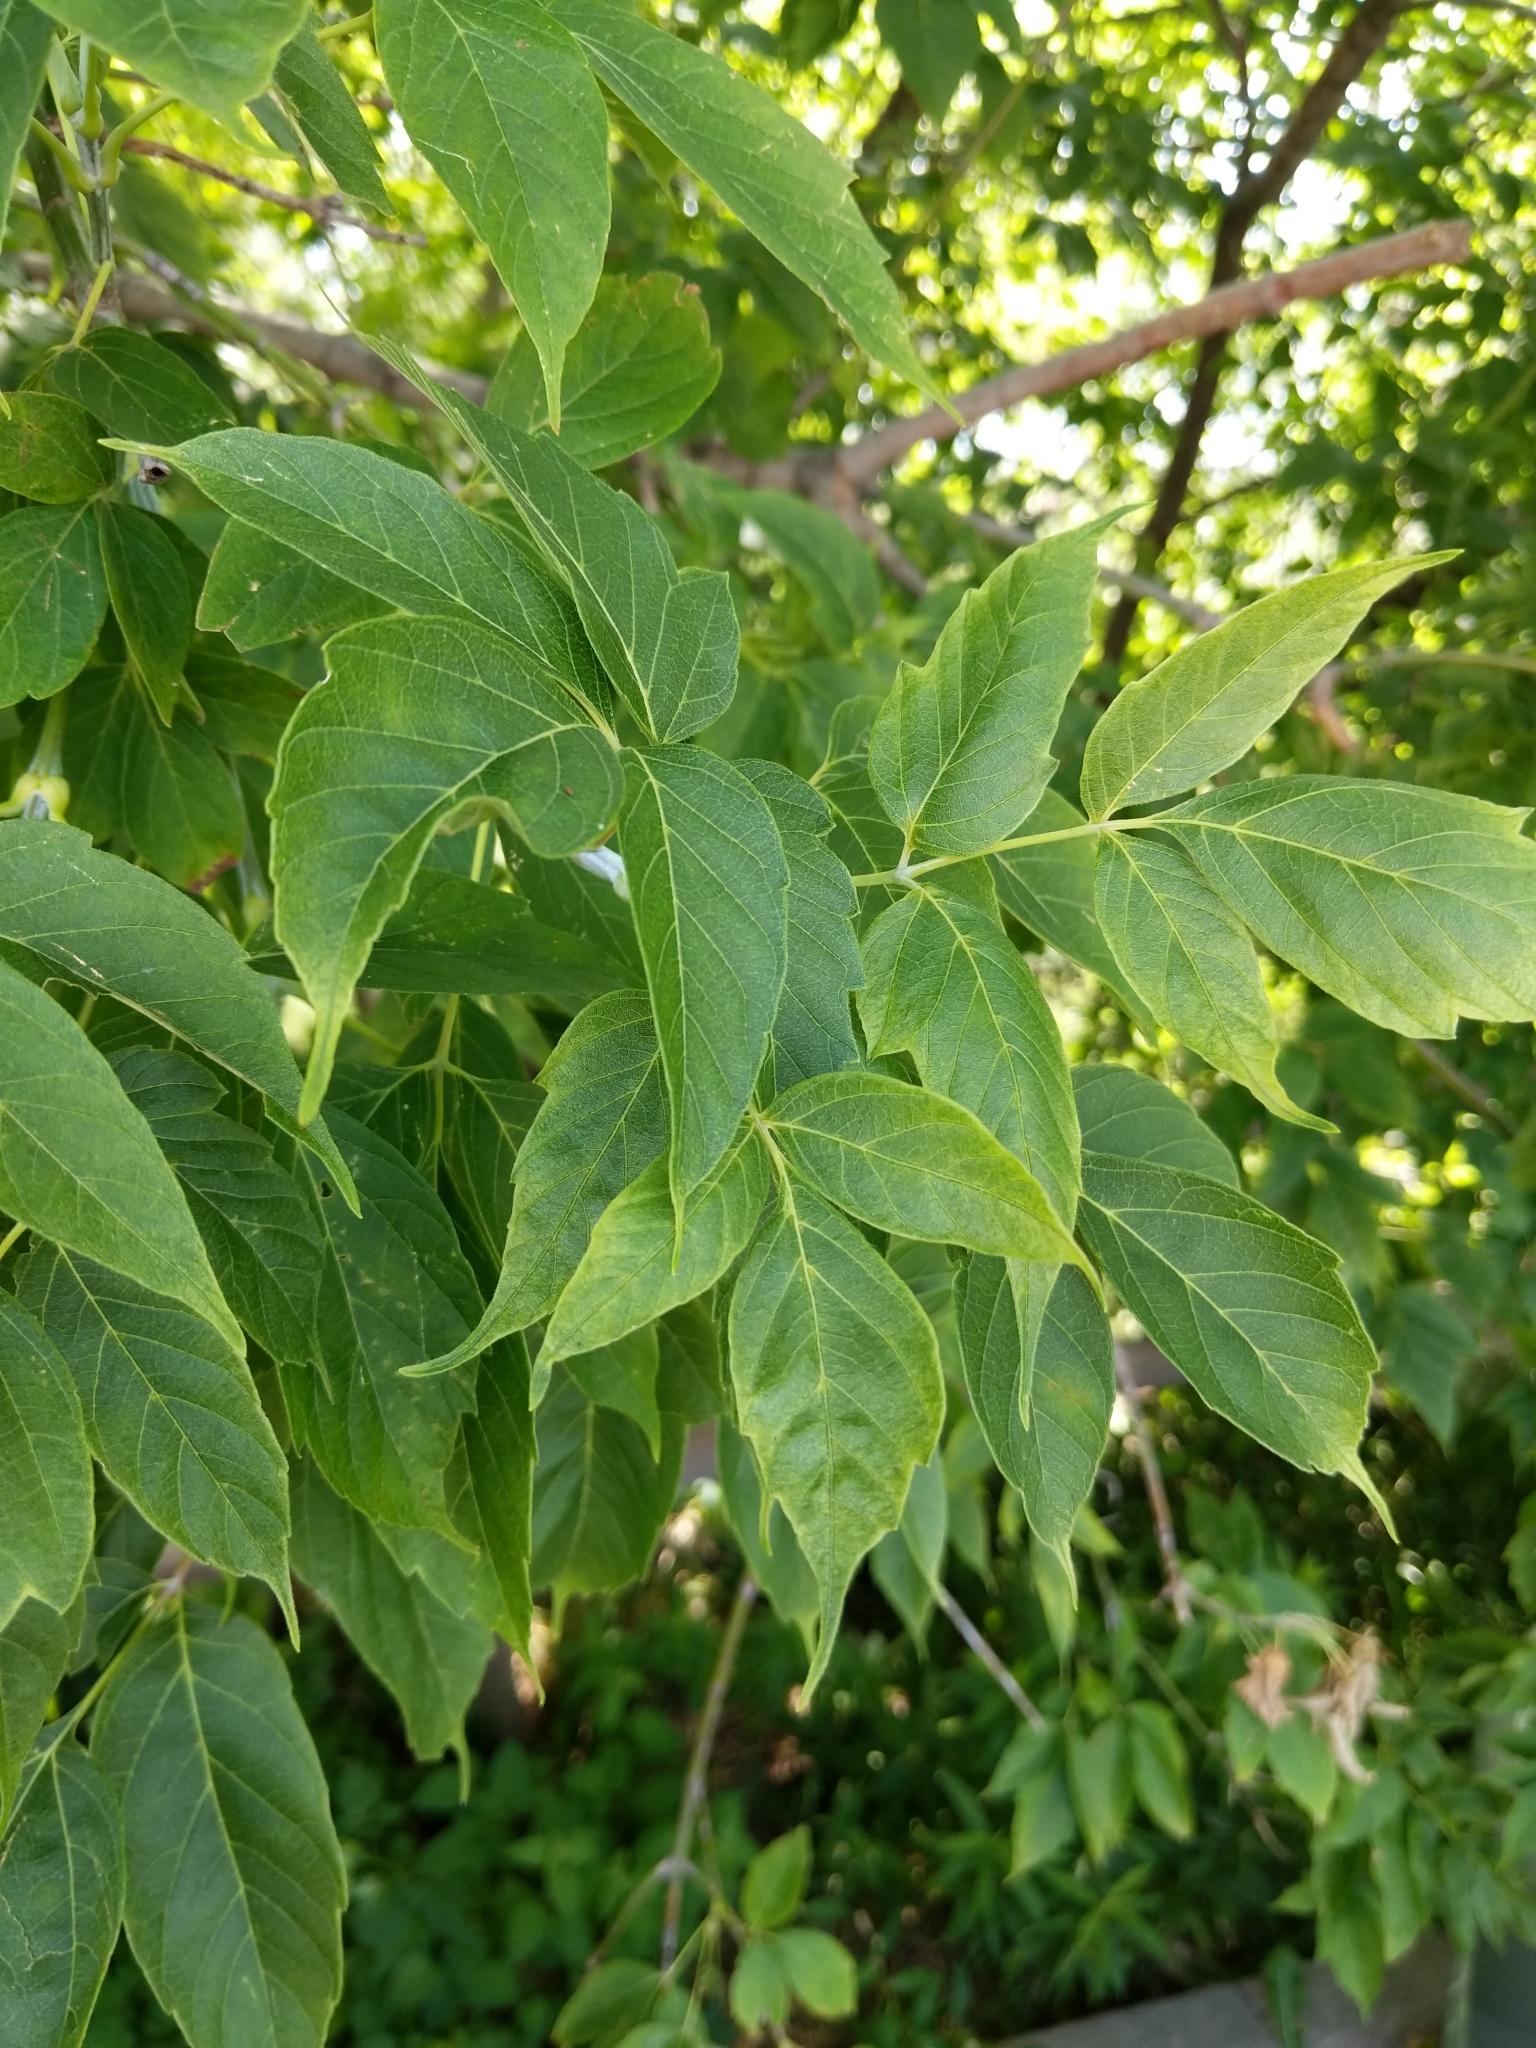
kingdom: Plantae
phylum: Tracheophyta
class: Magnoliopsida
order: Sapindales
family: Sapindaceae
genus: Acer
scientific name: Acer negundo
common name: Ashleaf maple
